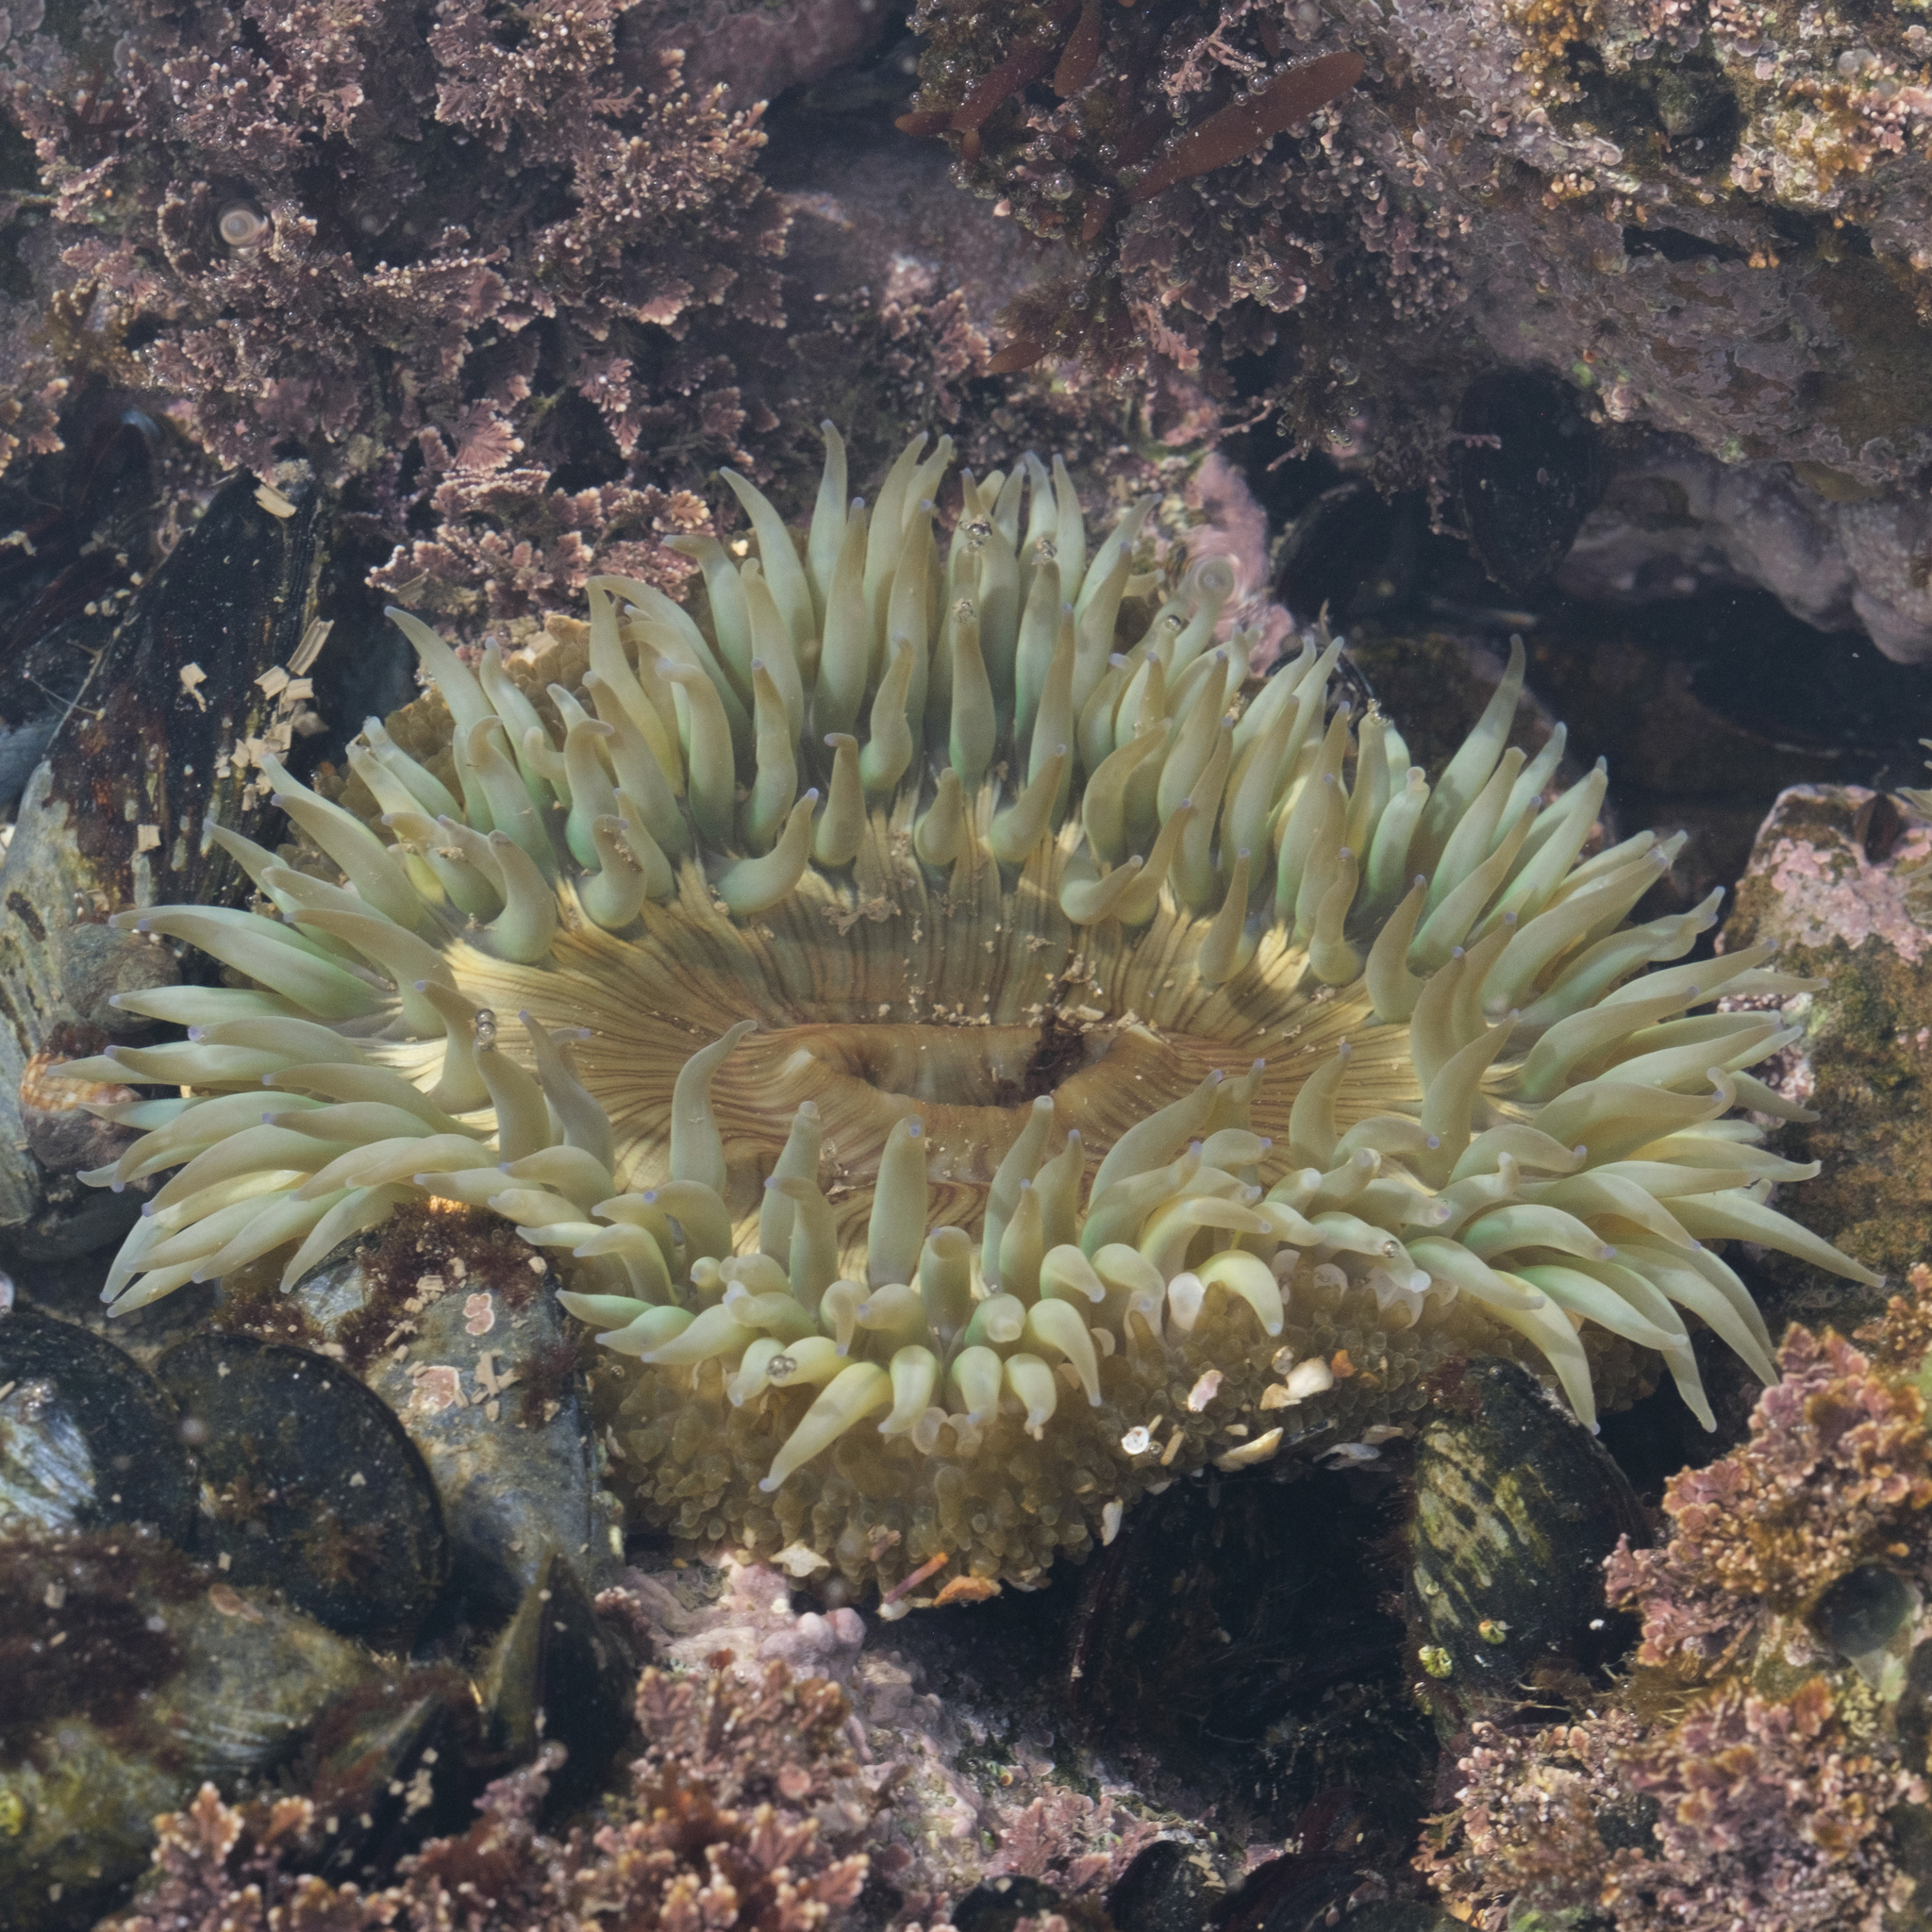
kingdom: Animalia
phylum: Cnidaria
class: Anthozoa
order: Actiniaria
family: Actiniidae
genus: Anthopleura
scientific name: Anthopleura sola
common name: Sun anemone
